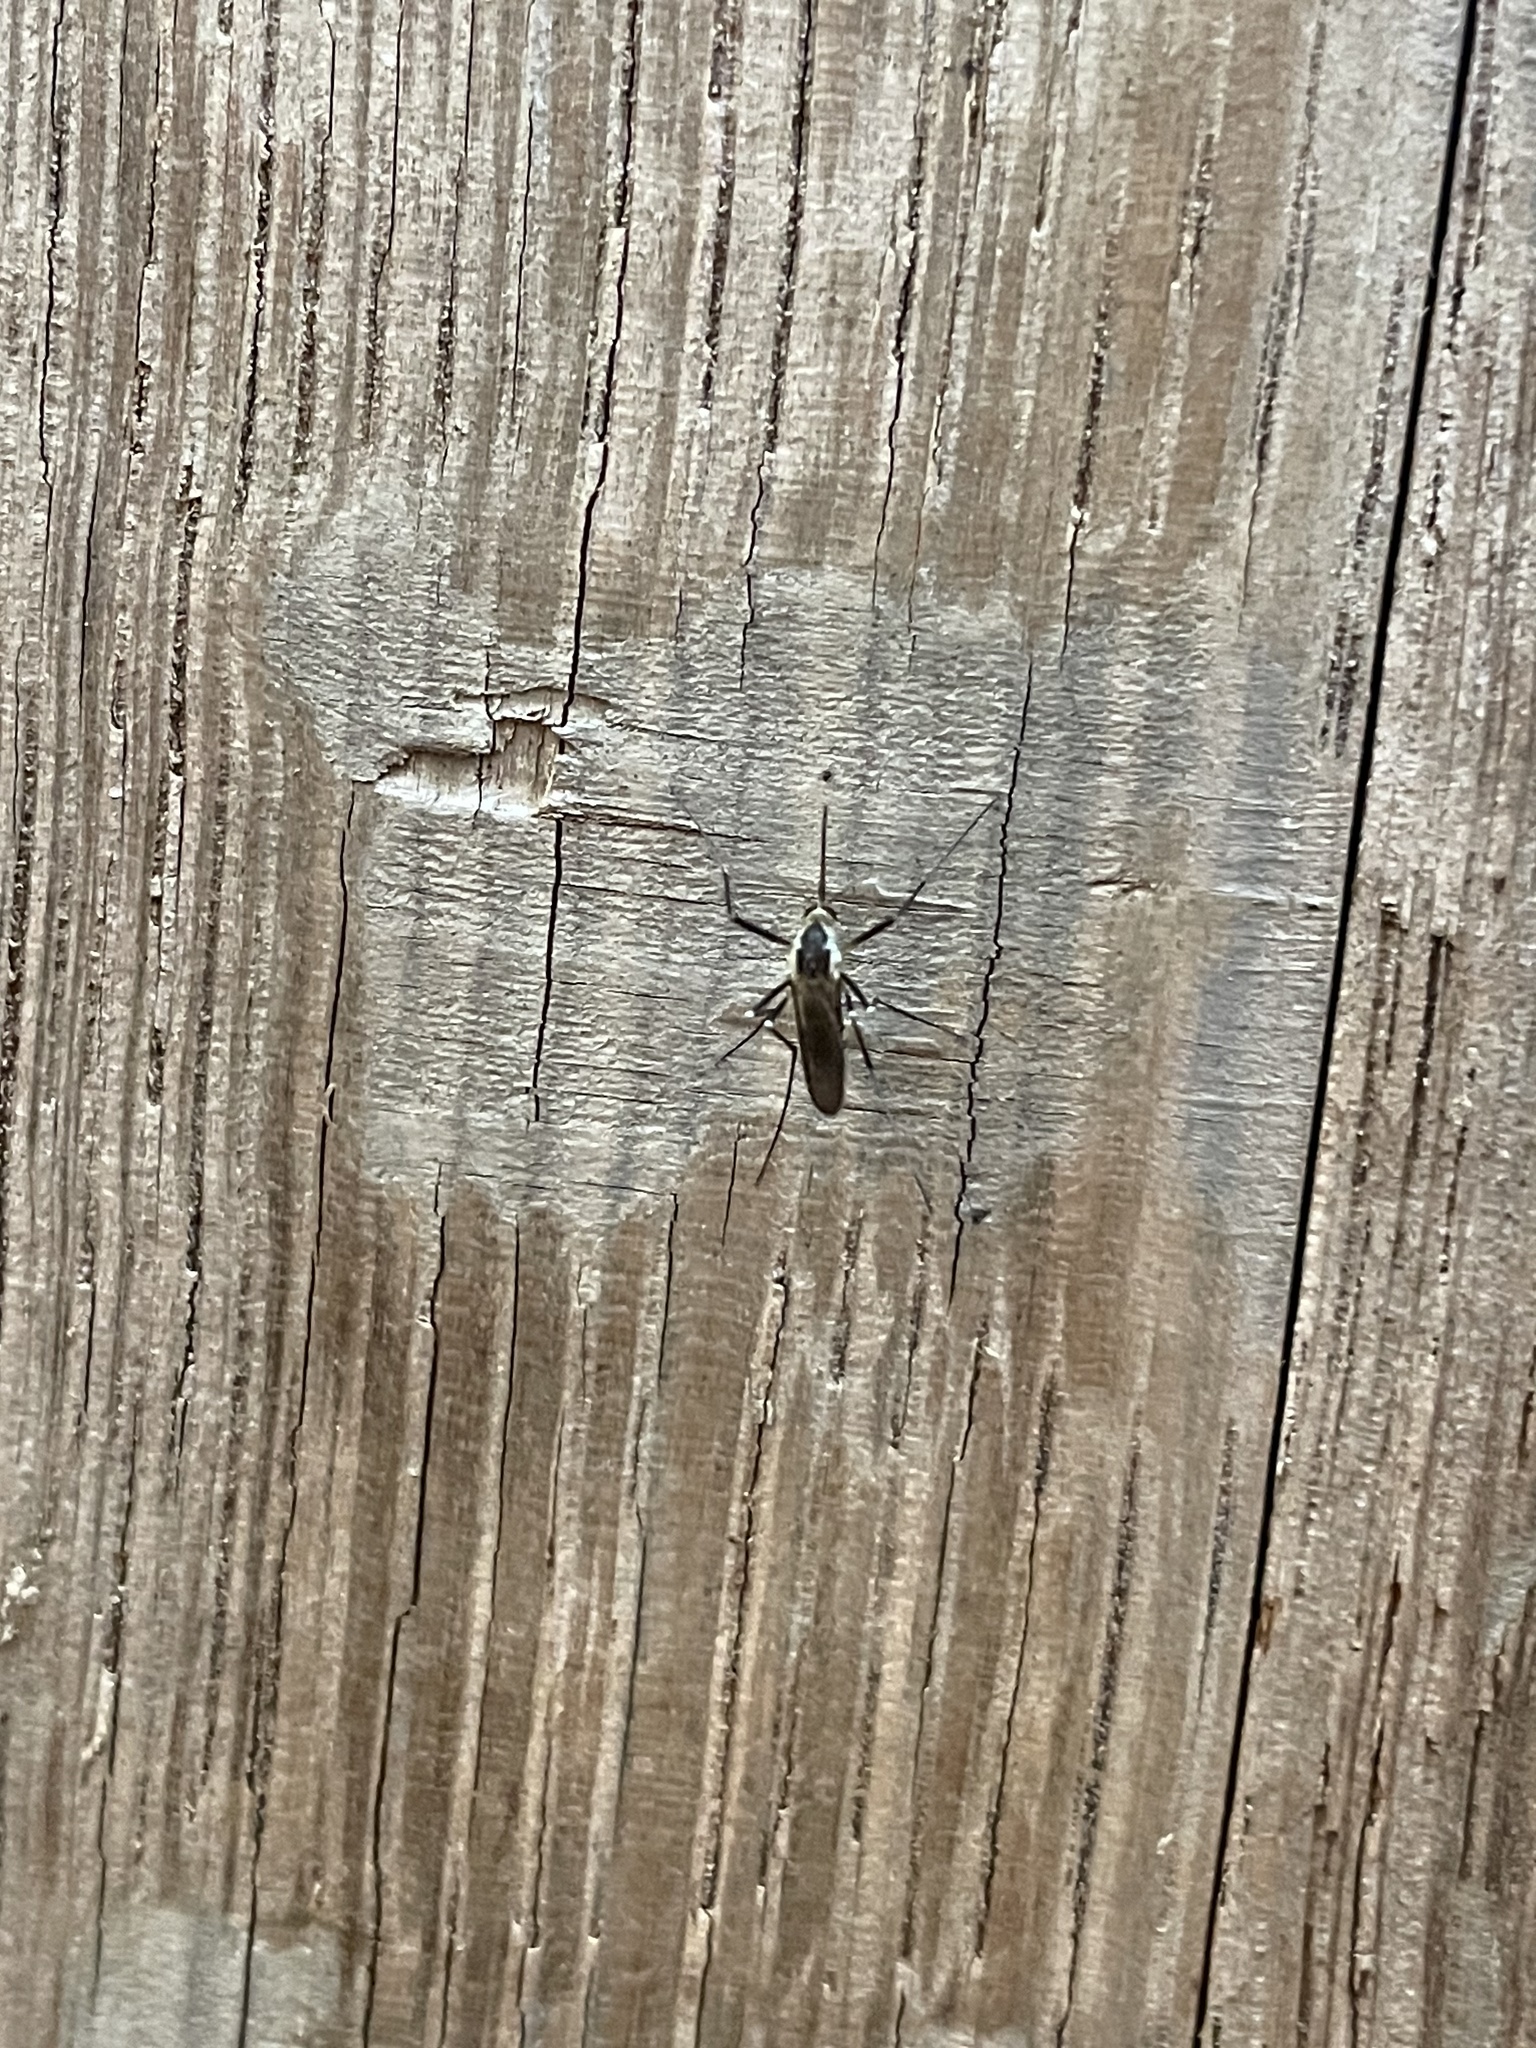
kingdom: Animalia
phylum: Arthropoda
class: Insecta
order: Diptera
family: Culicidae
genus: Aedes
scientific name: Aedes triseriatus
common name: Eastern treehole mosquito
